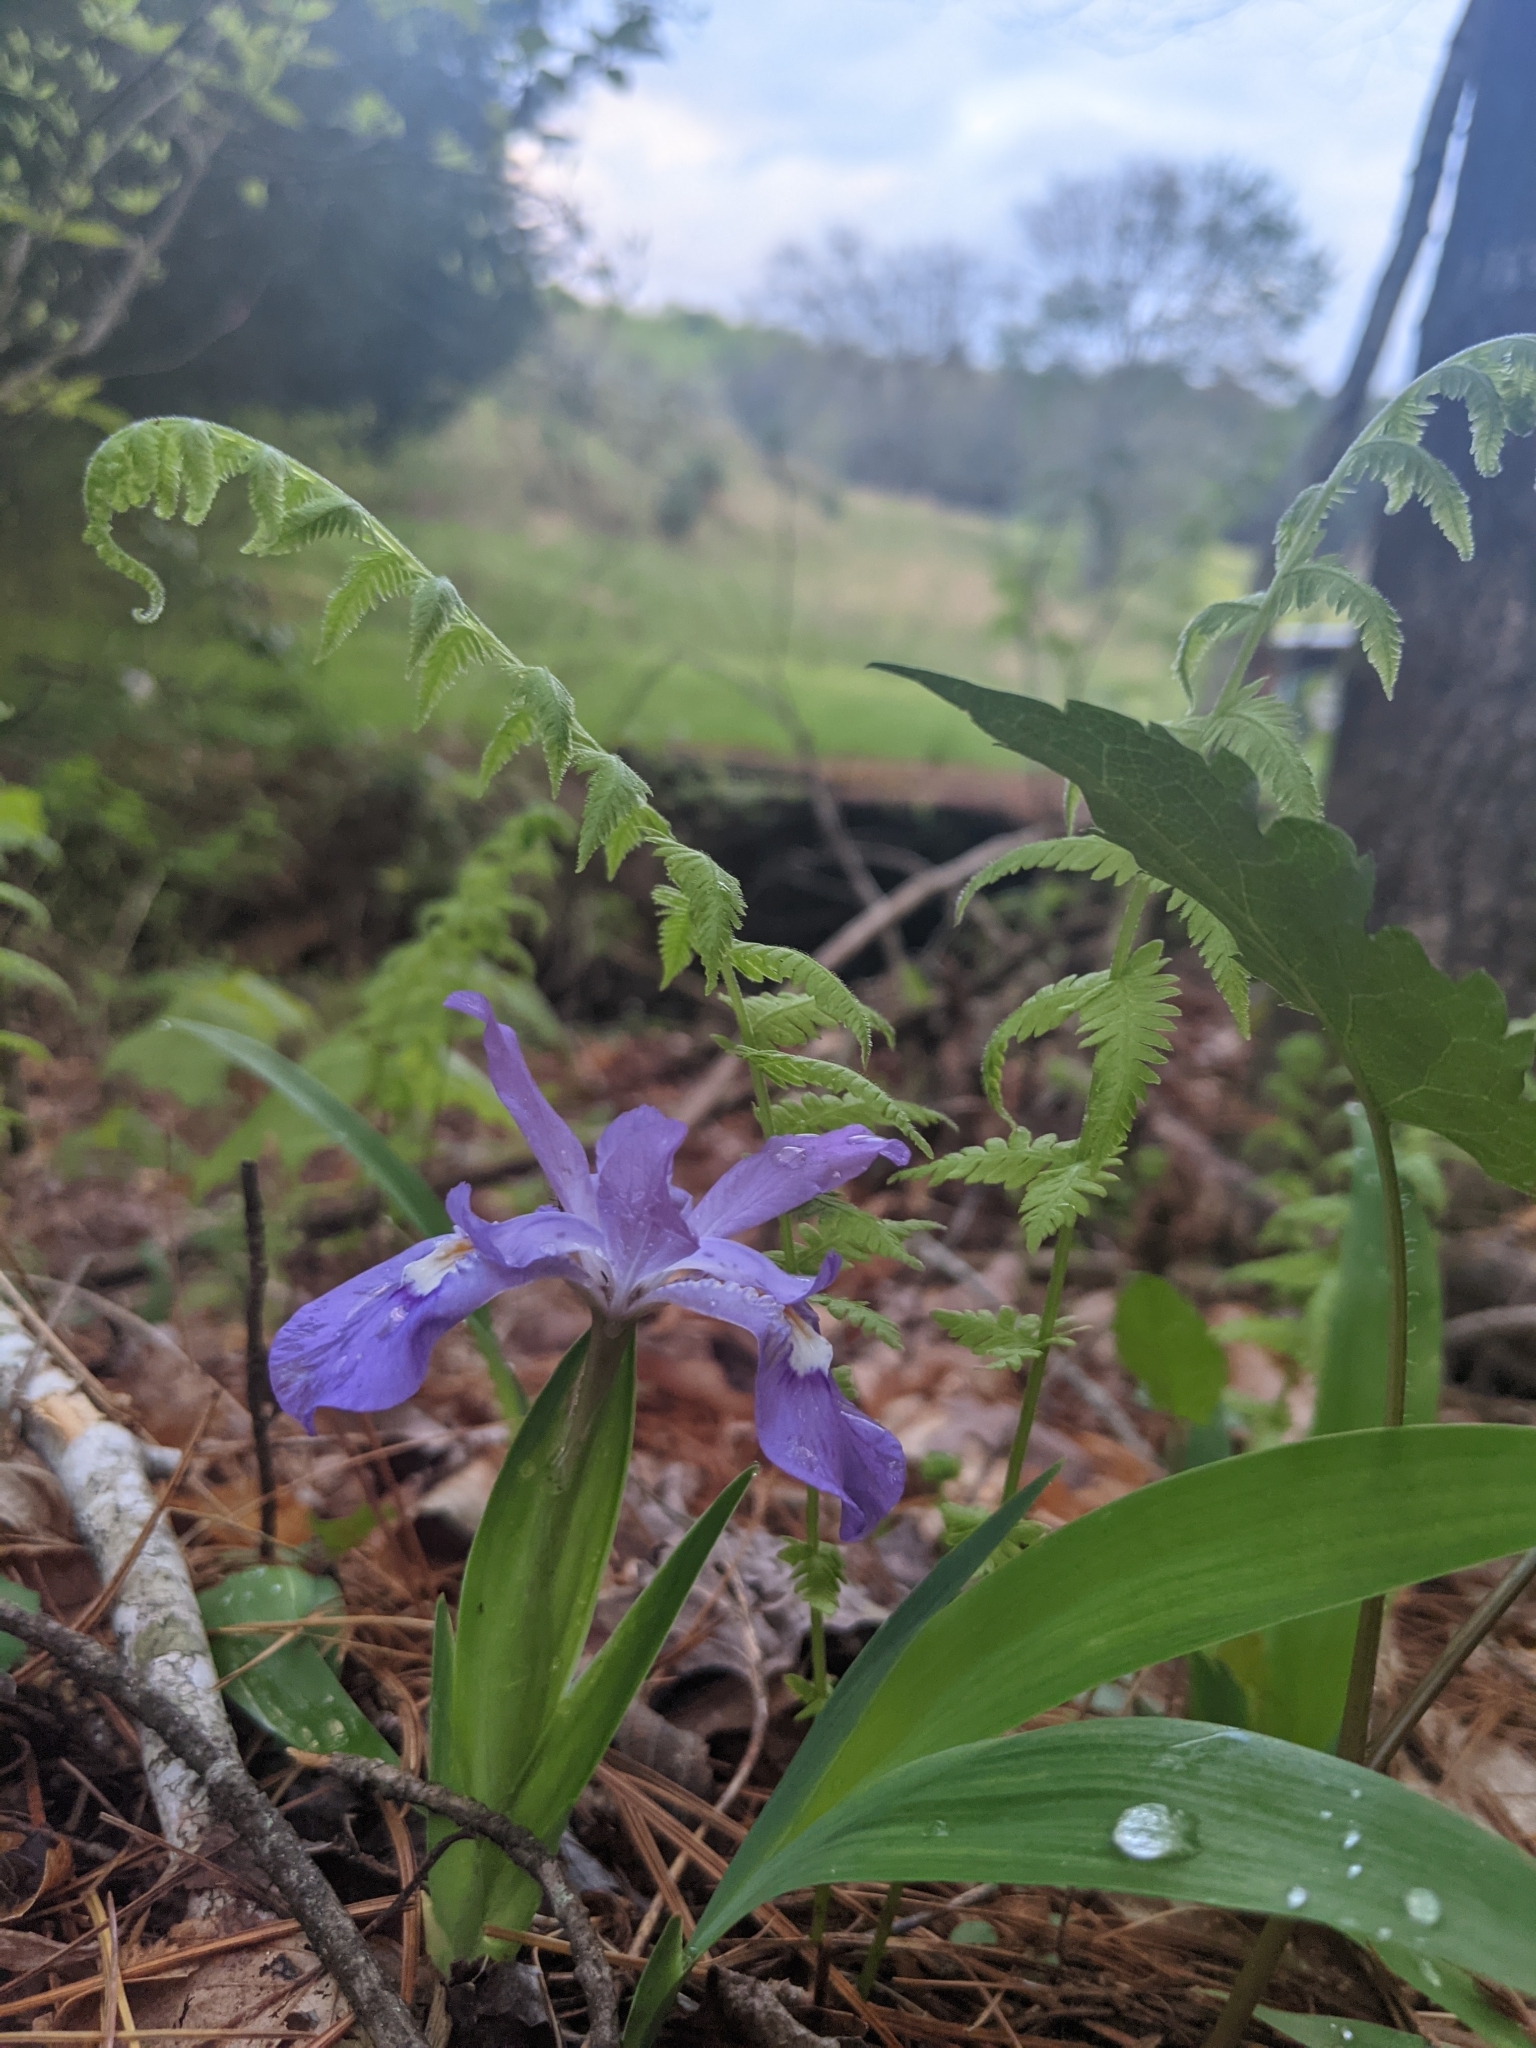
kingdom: Plantae
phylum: Tracheophyta
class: Liliopsida
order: Asparagales
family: Iridaceae
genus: Iris
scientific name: Iris cristata
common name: Crested iris
